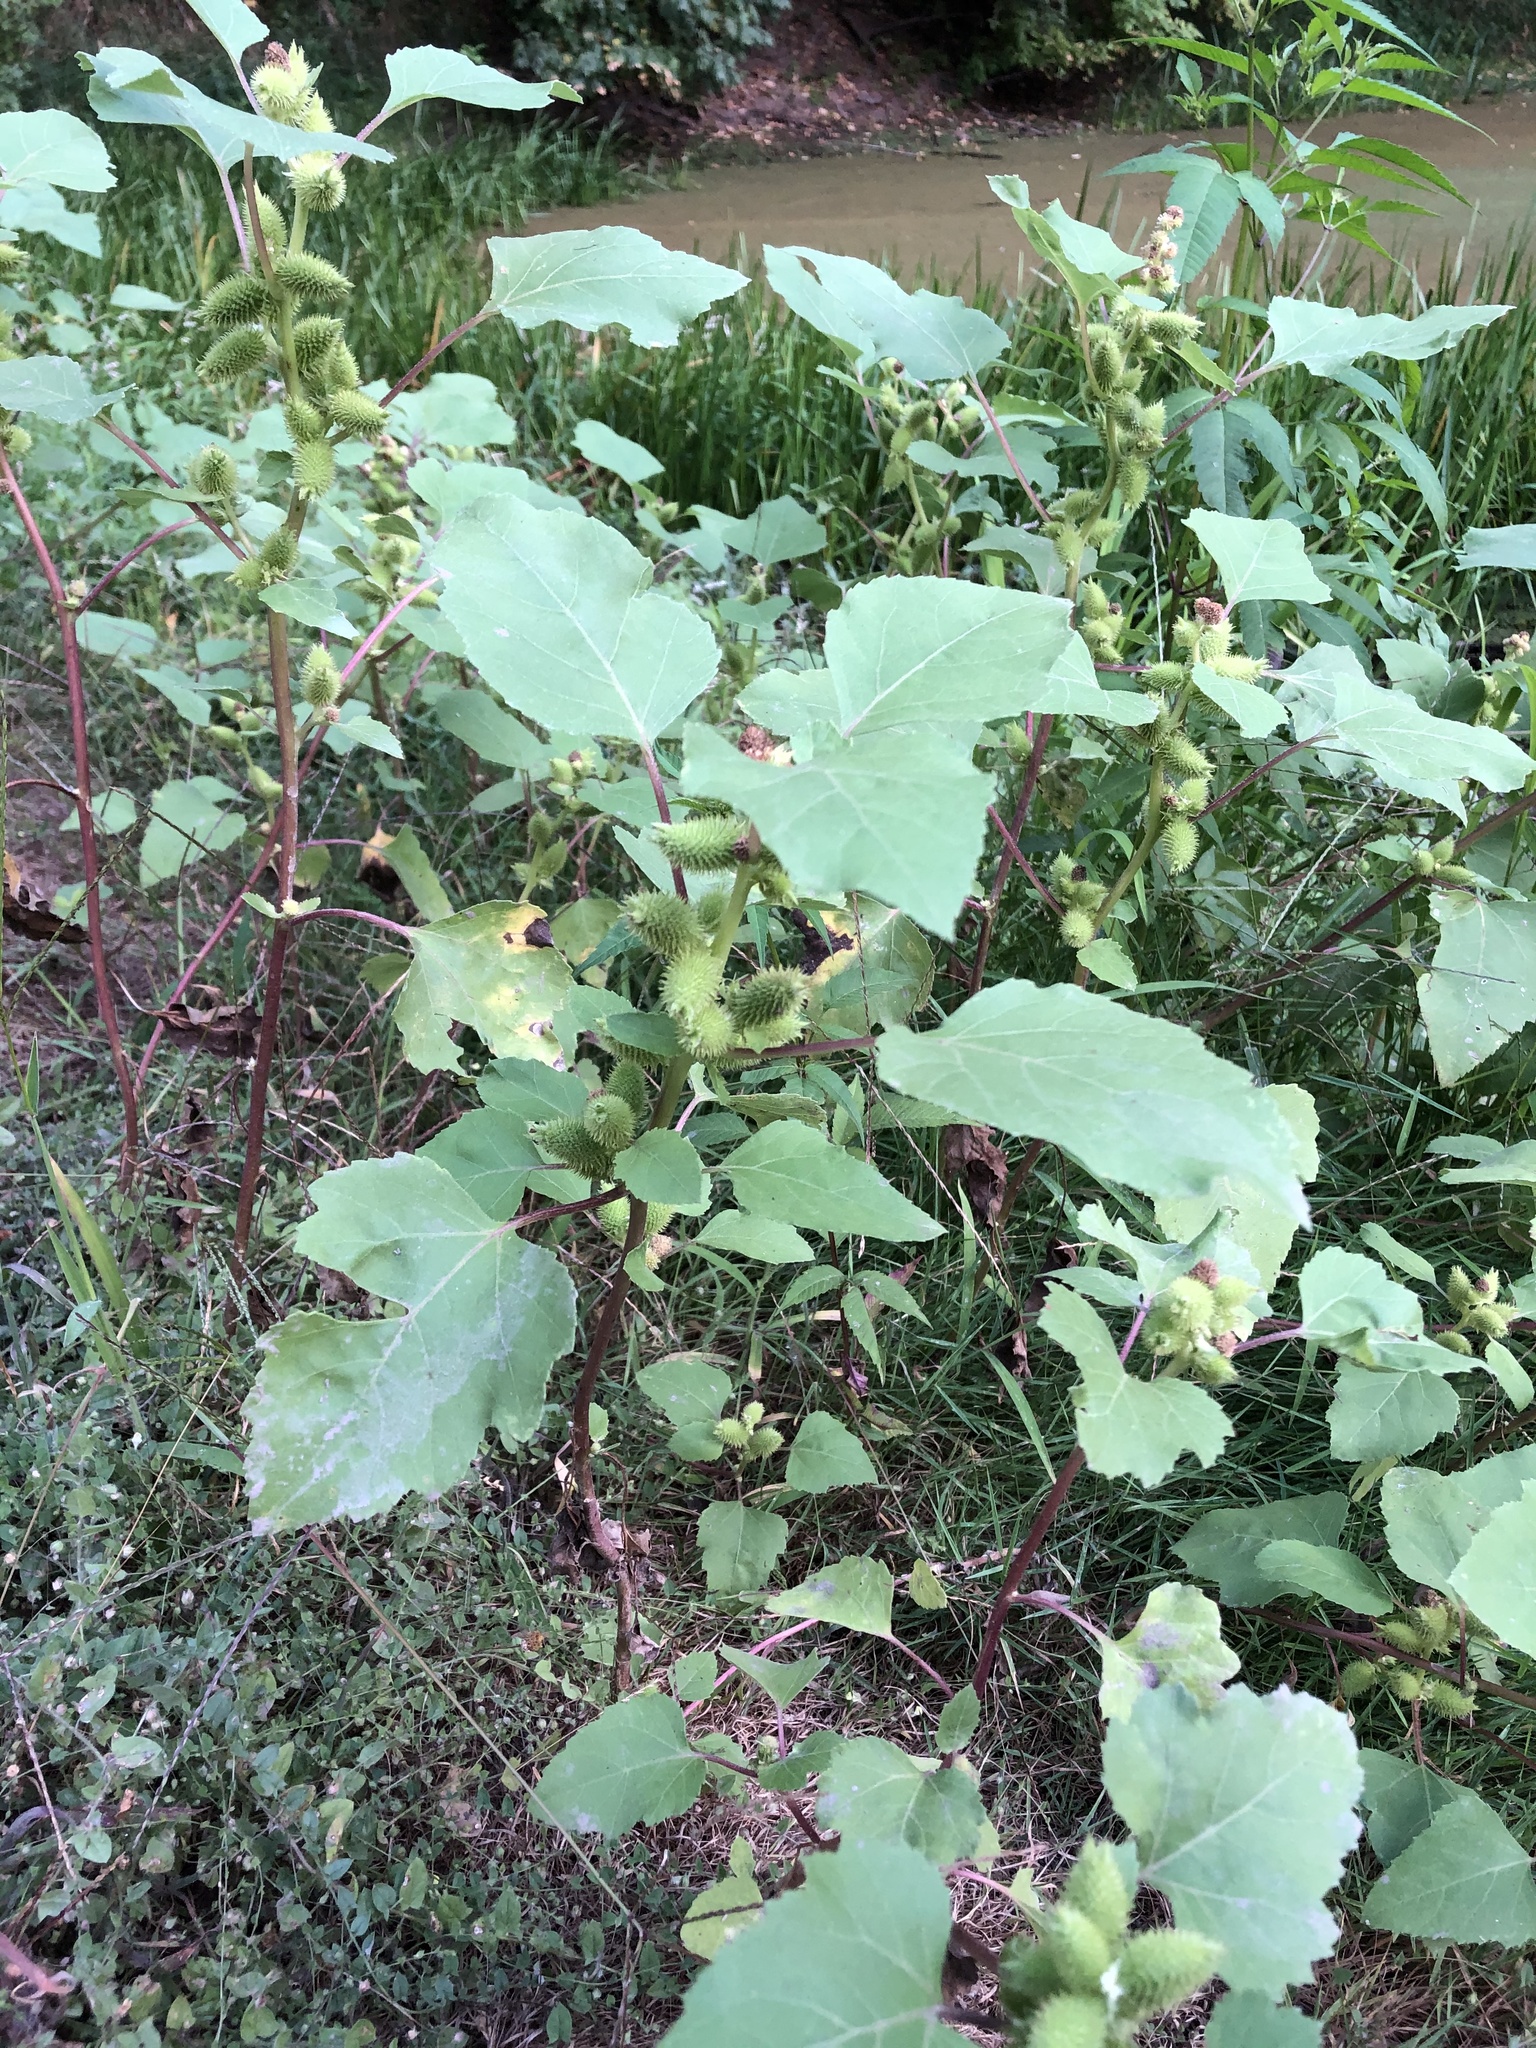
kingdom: Plantae
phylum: Tracheophyta
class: Magnoliopsida
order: Asterales
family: Asteraceae
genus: Xanthium
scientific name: Xanthium strumarium
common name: Rough cocklebur
